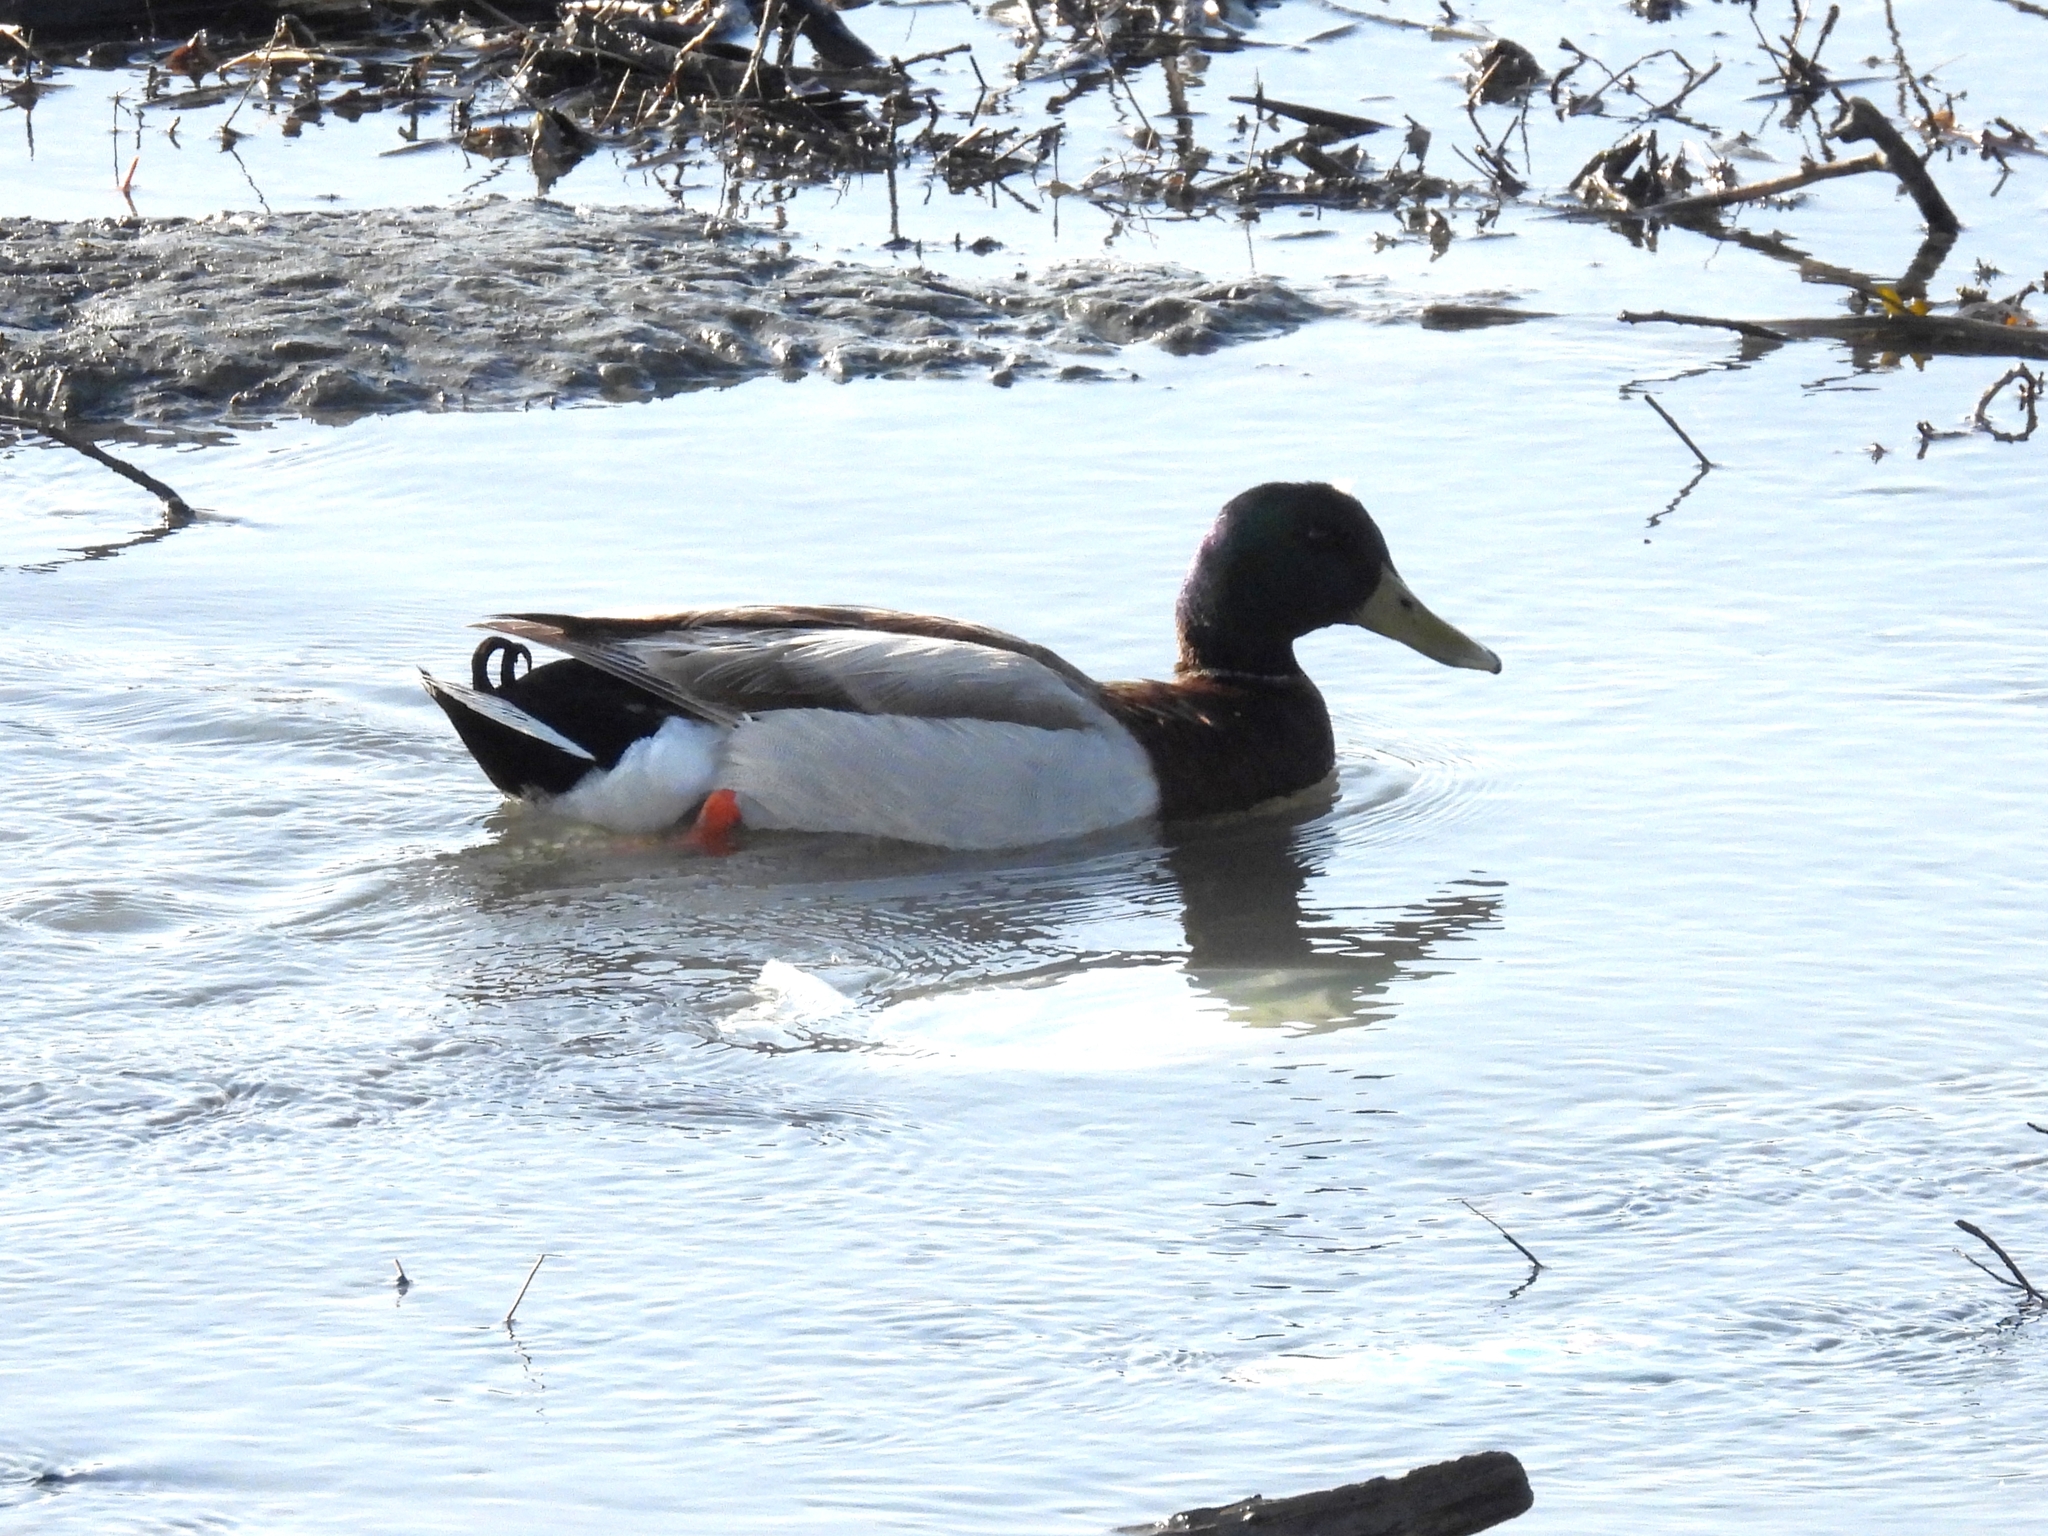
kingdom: Animalia
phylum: Chordata
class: Aves
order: Anseriformes
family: Anatidae
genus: Anas
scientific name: Anas platyrhynchos
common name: Mallard
